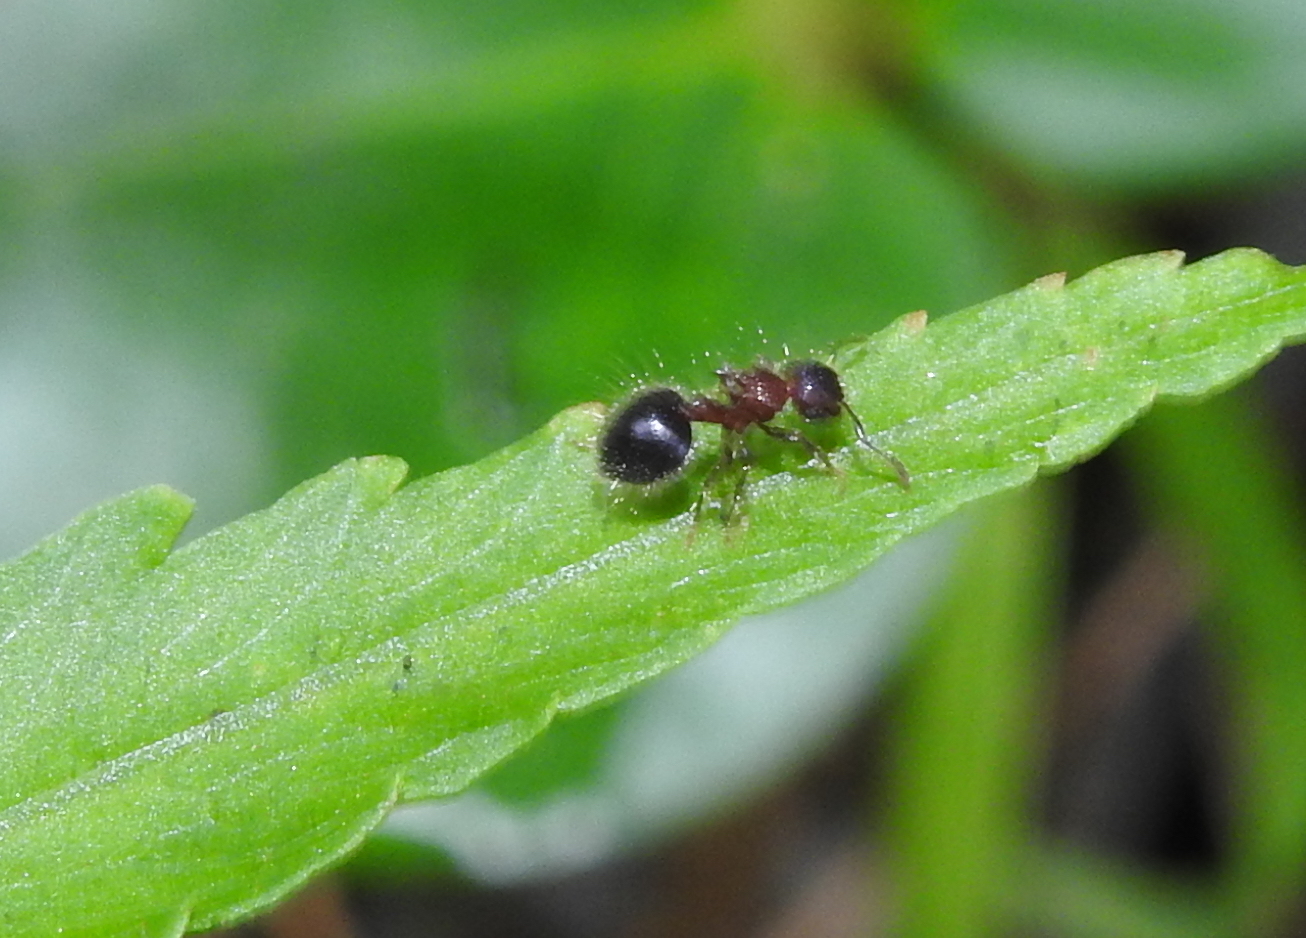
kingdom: Animalia
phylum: Arthropoda
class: Insecta
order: Hymenoptera
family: Formicidae
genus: Meranoplus
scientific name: Meranoplus bicolor
